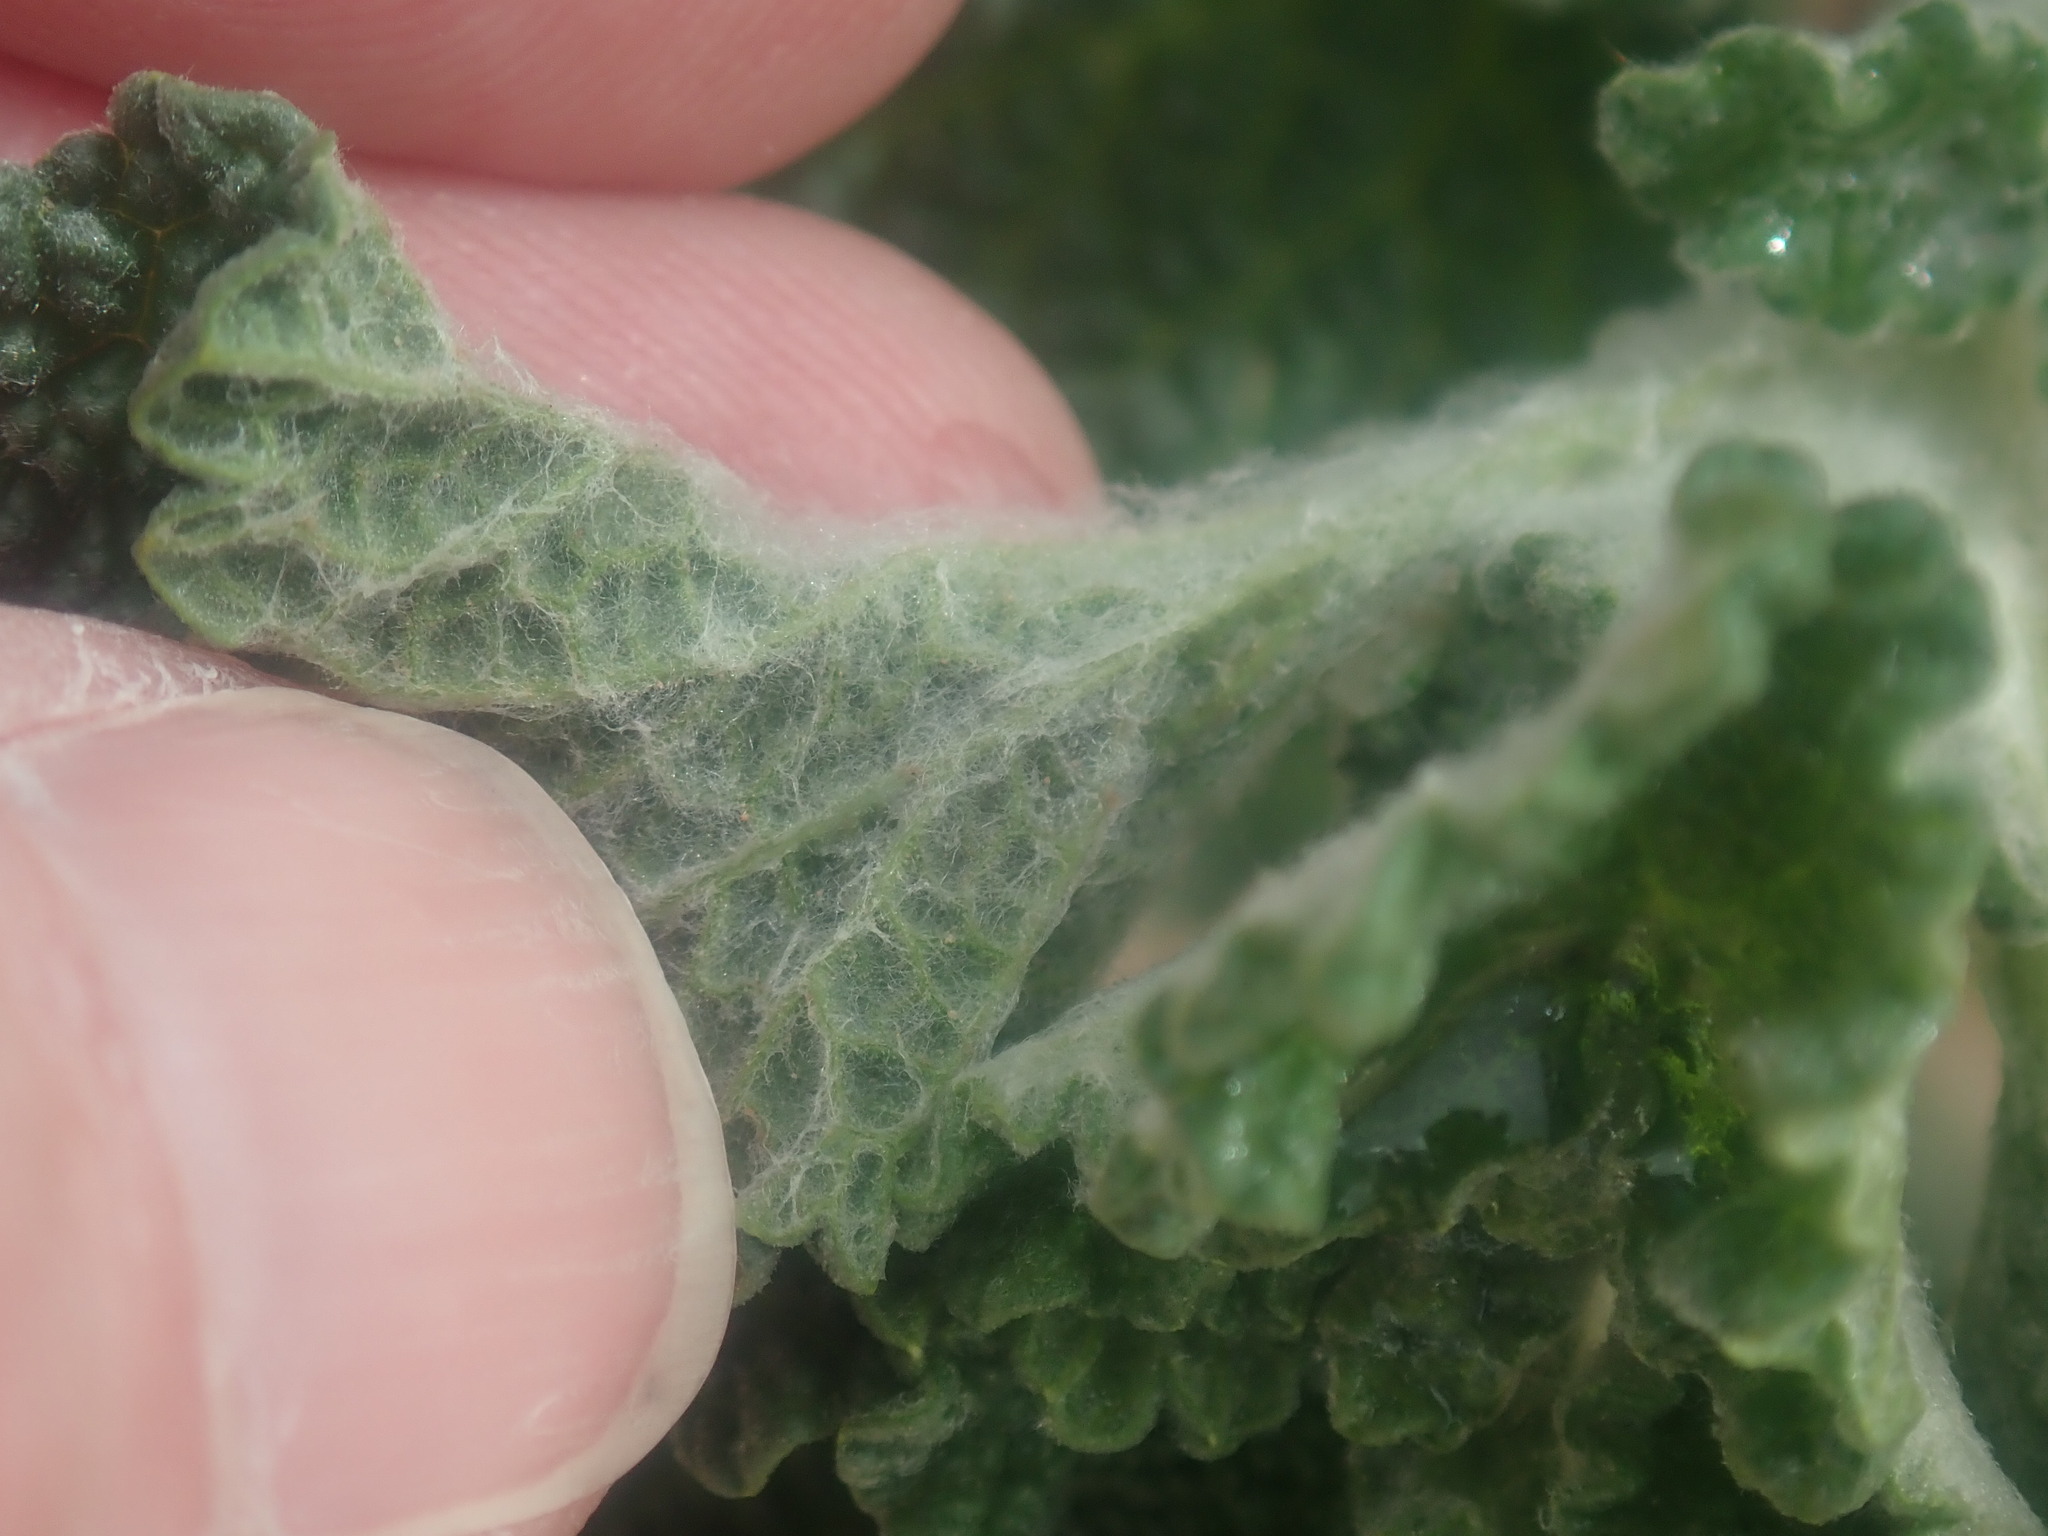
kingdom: Plantae
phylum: Tracheophyta
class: Magnoliopsida
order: Lamiales
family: Lamiaceae
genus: Marrubium
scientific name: Marrubium vulgare
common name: Horehound
